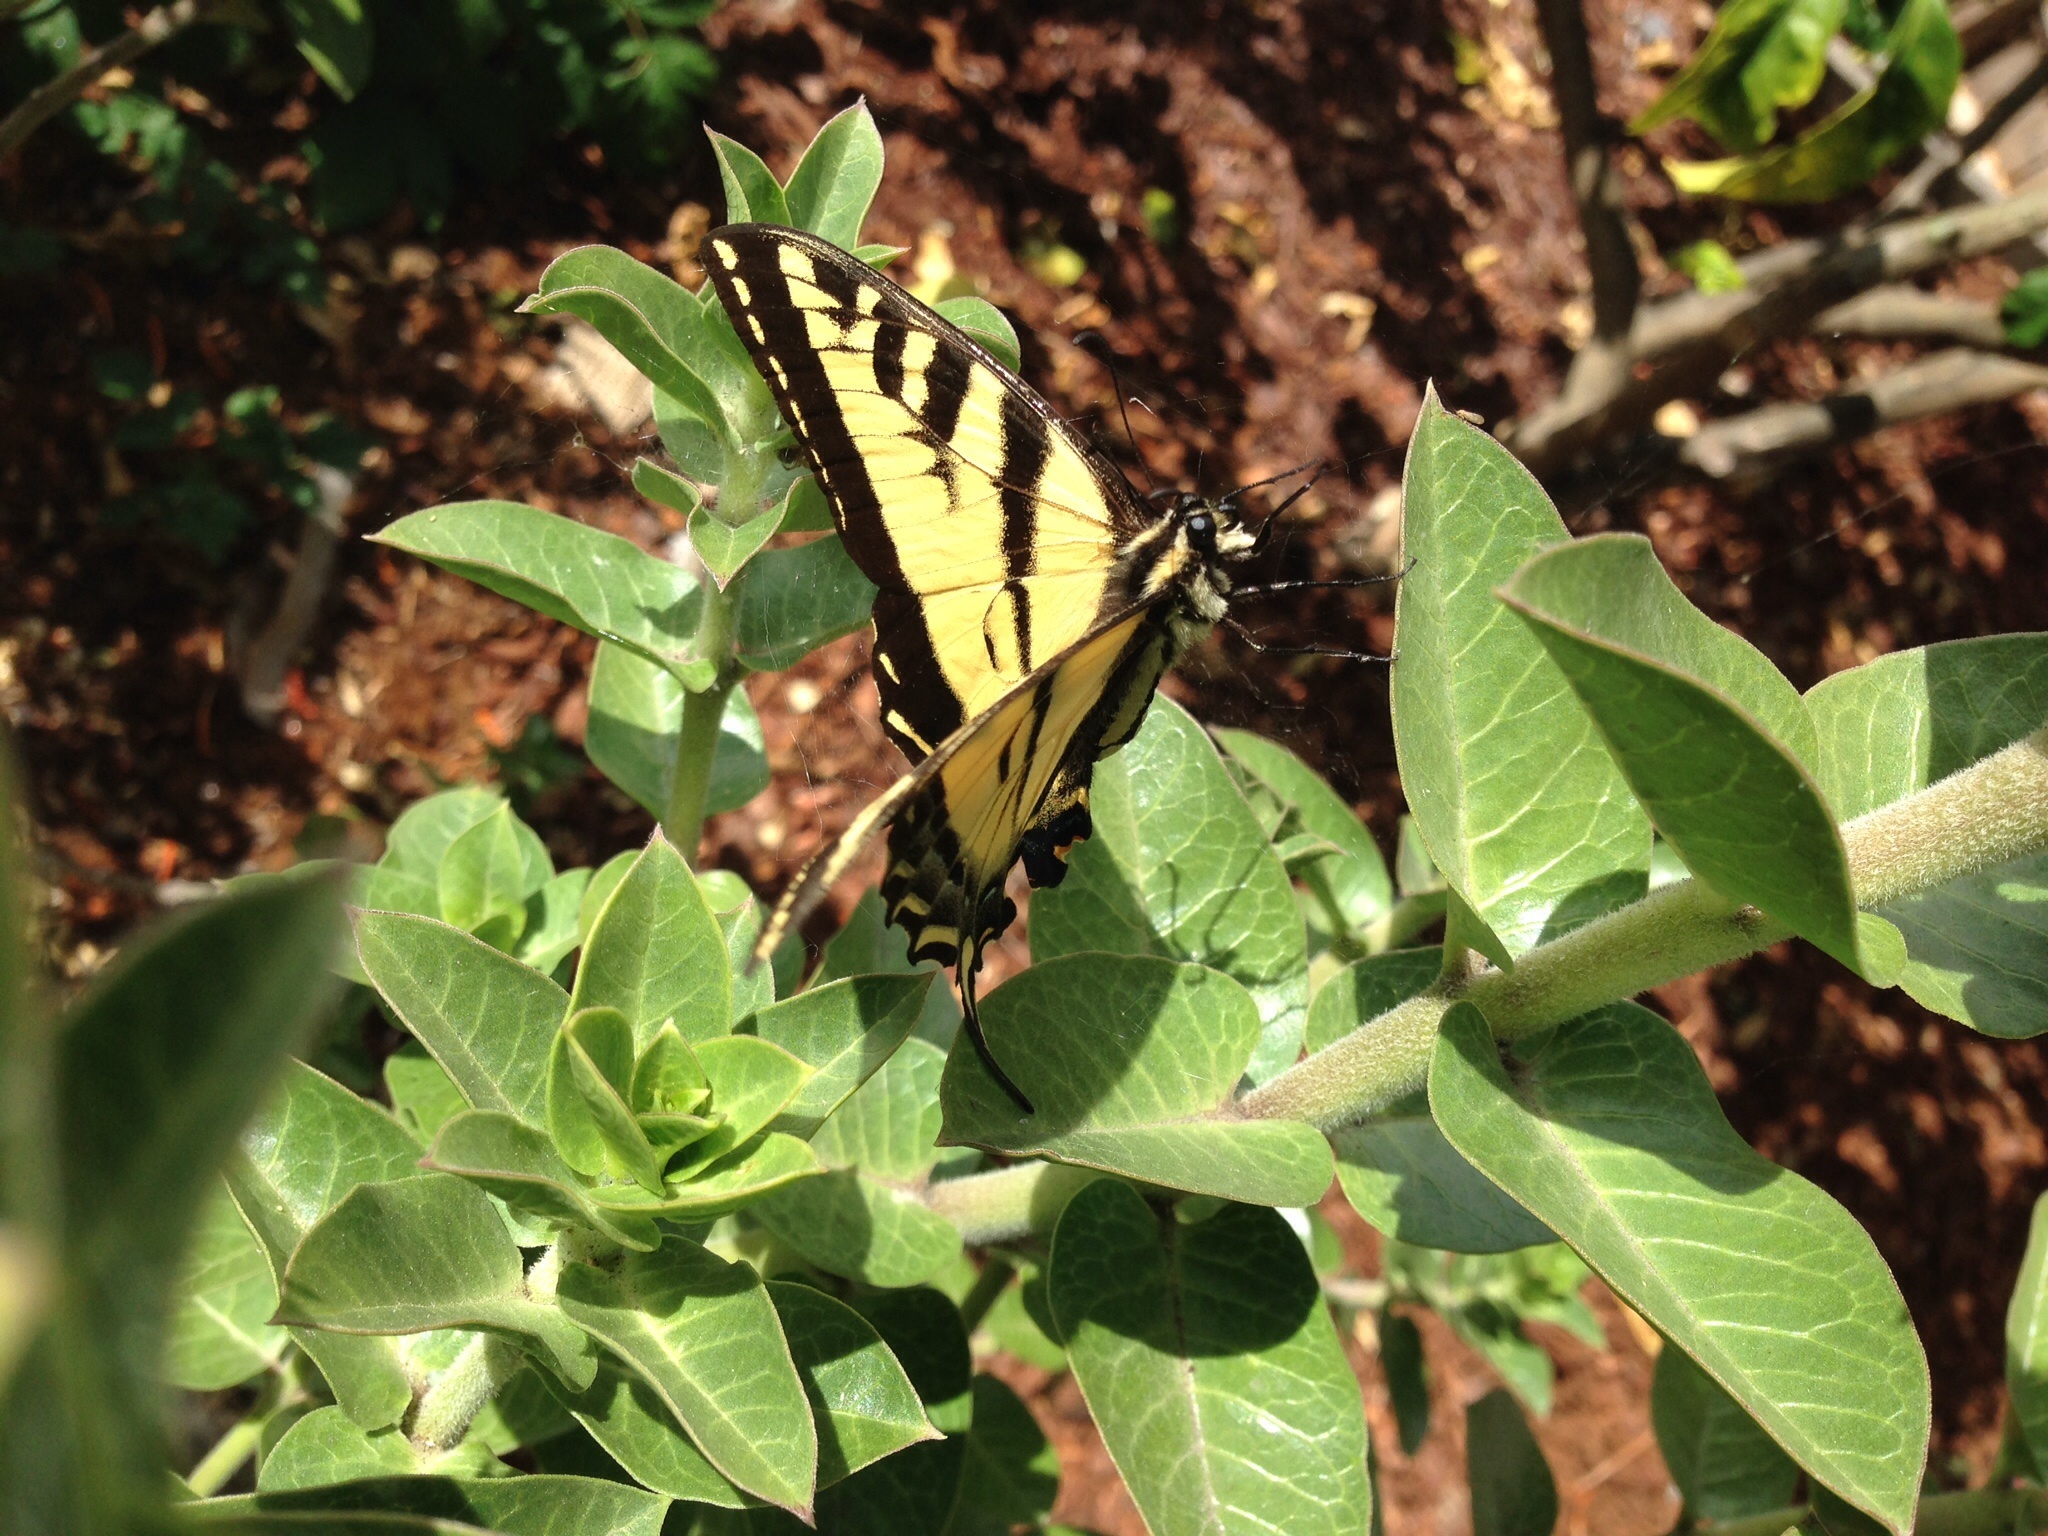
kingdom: Animalia
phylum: Arthropoda
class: Insecta
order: Lepidoptera
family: Papilionidae
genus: Papilio
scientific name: Papilio rutulus
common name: Western tiger swallowtail
